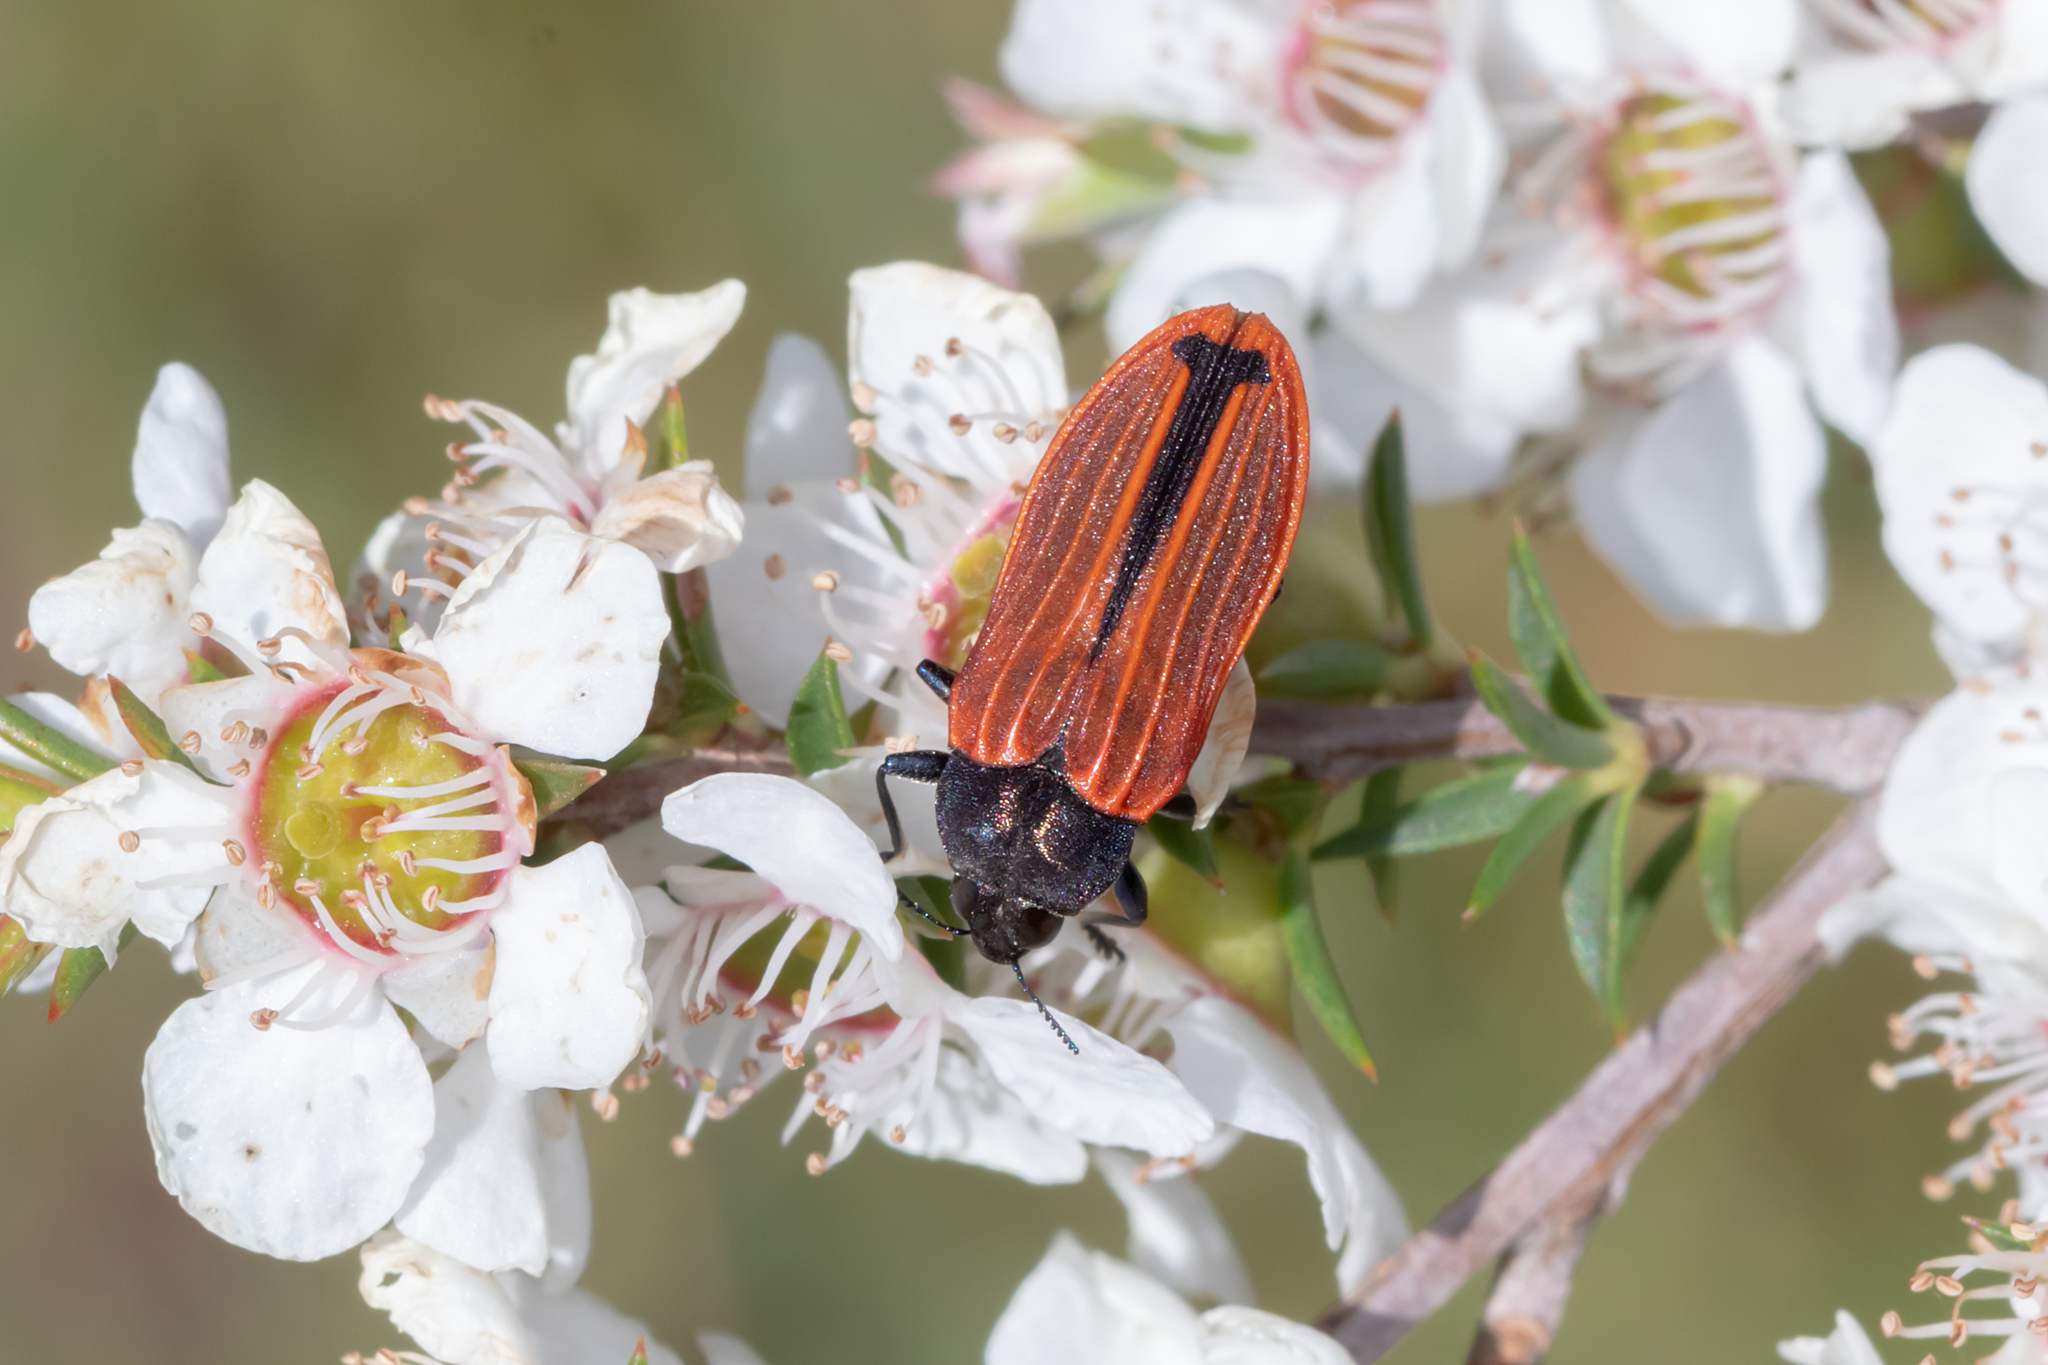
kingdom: Animalia
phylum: Arthropoda
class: Insecta
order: Coleoptera
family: Buprestidae
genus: Castiarina
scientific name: Castiarina erythroptera
